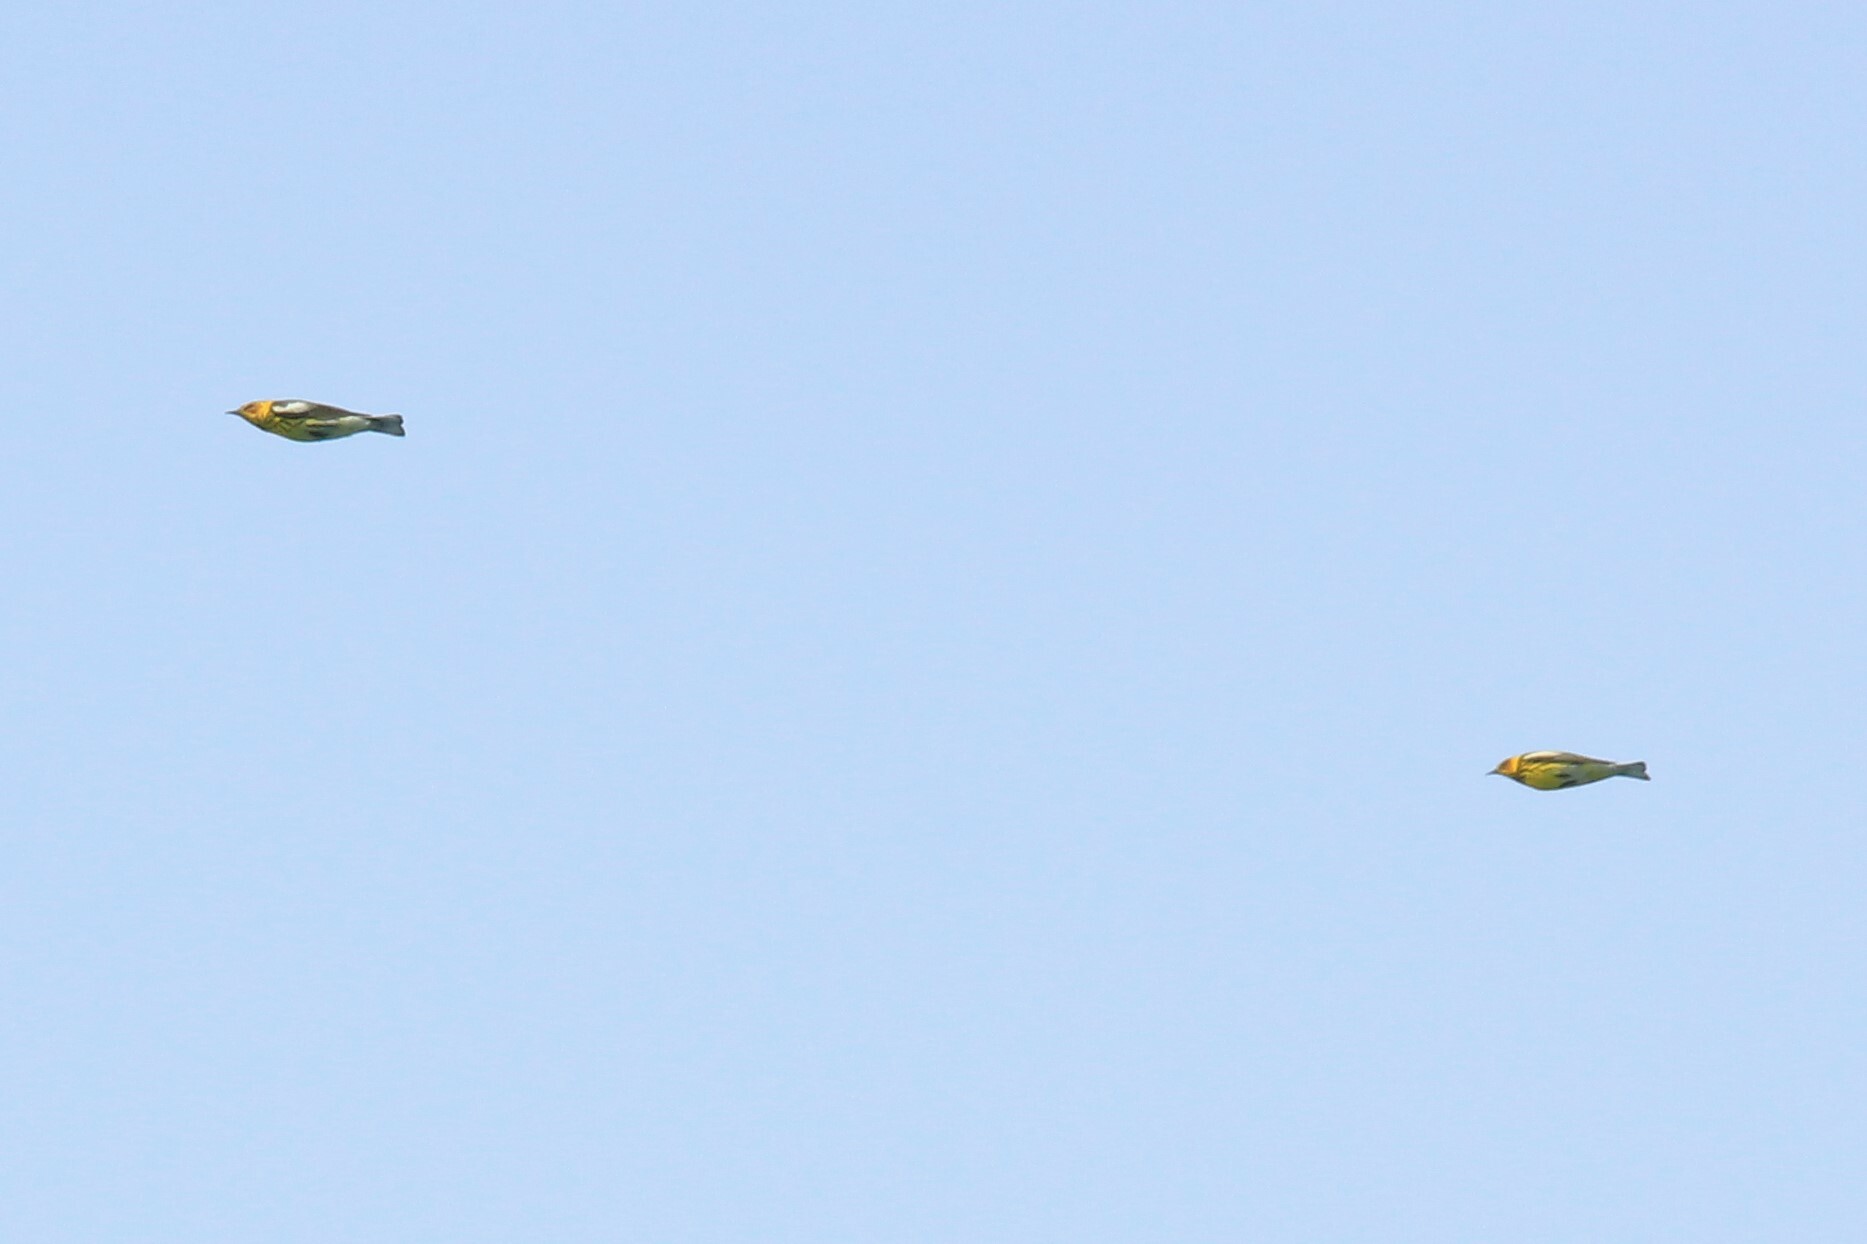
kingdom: Animalia
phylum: Chordata
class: Aves
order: Passeriformes
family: Parulidae
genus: Setophaga
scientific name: Setophaga tigrina
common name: Cape may warbler
